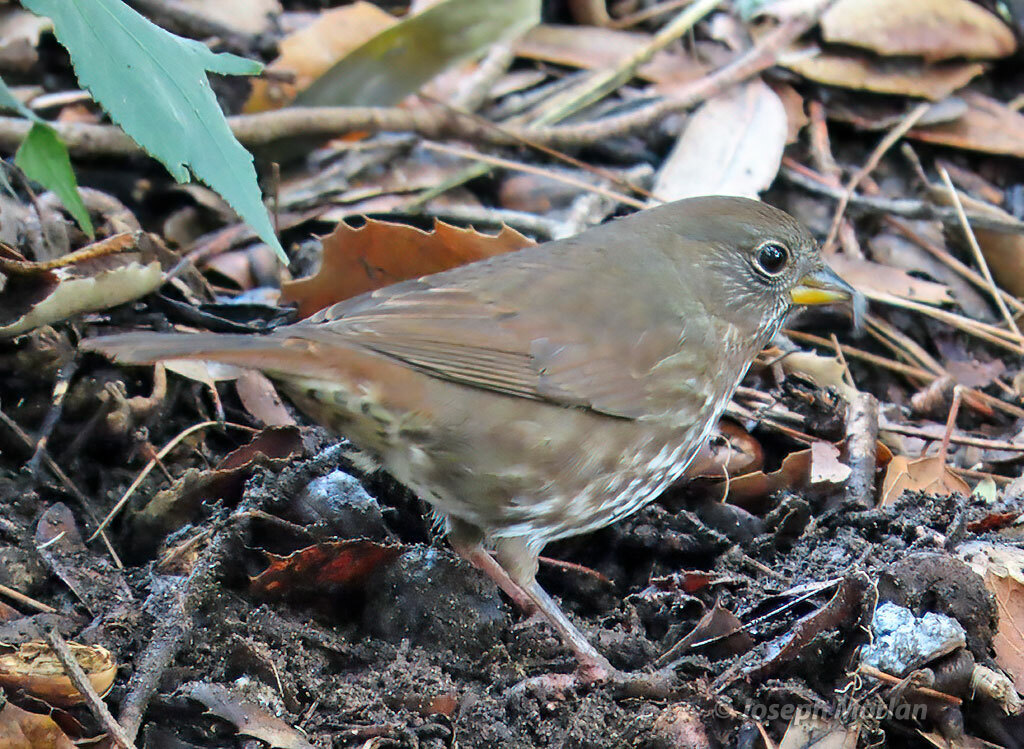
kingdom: Animalia
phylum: Chordata
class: Aves
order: Passeriformes
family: Passerellidae
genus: Passerella
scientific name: Passerella iliaca
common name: Fox sparrow
